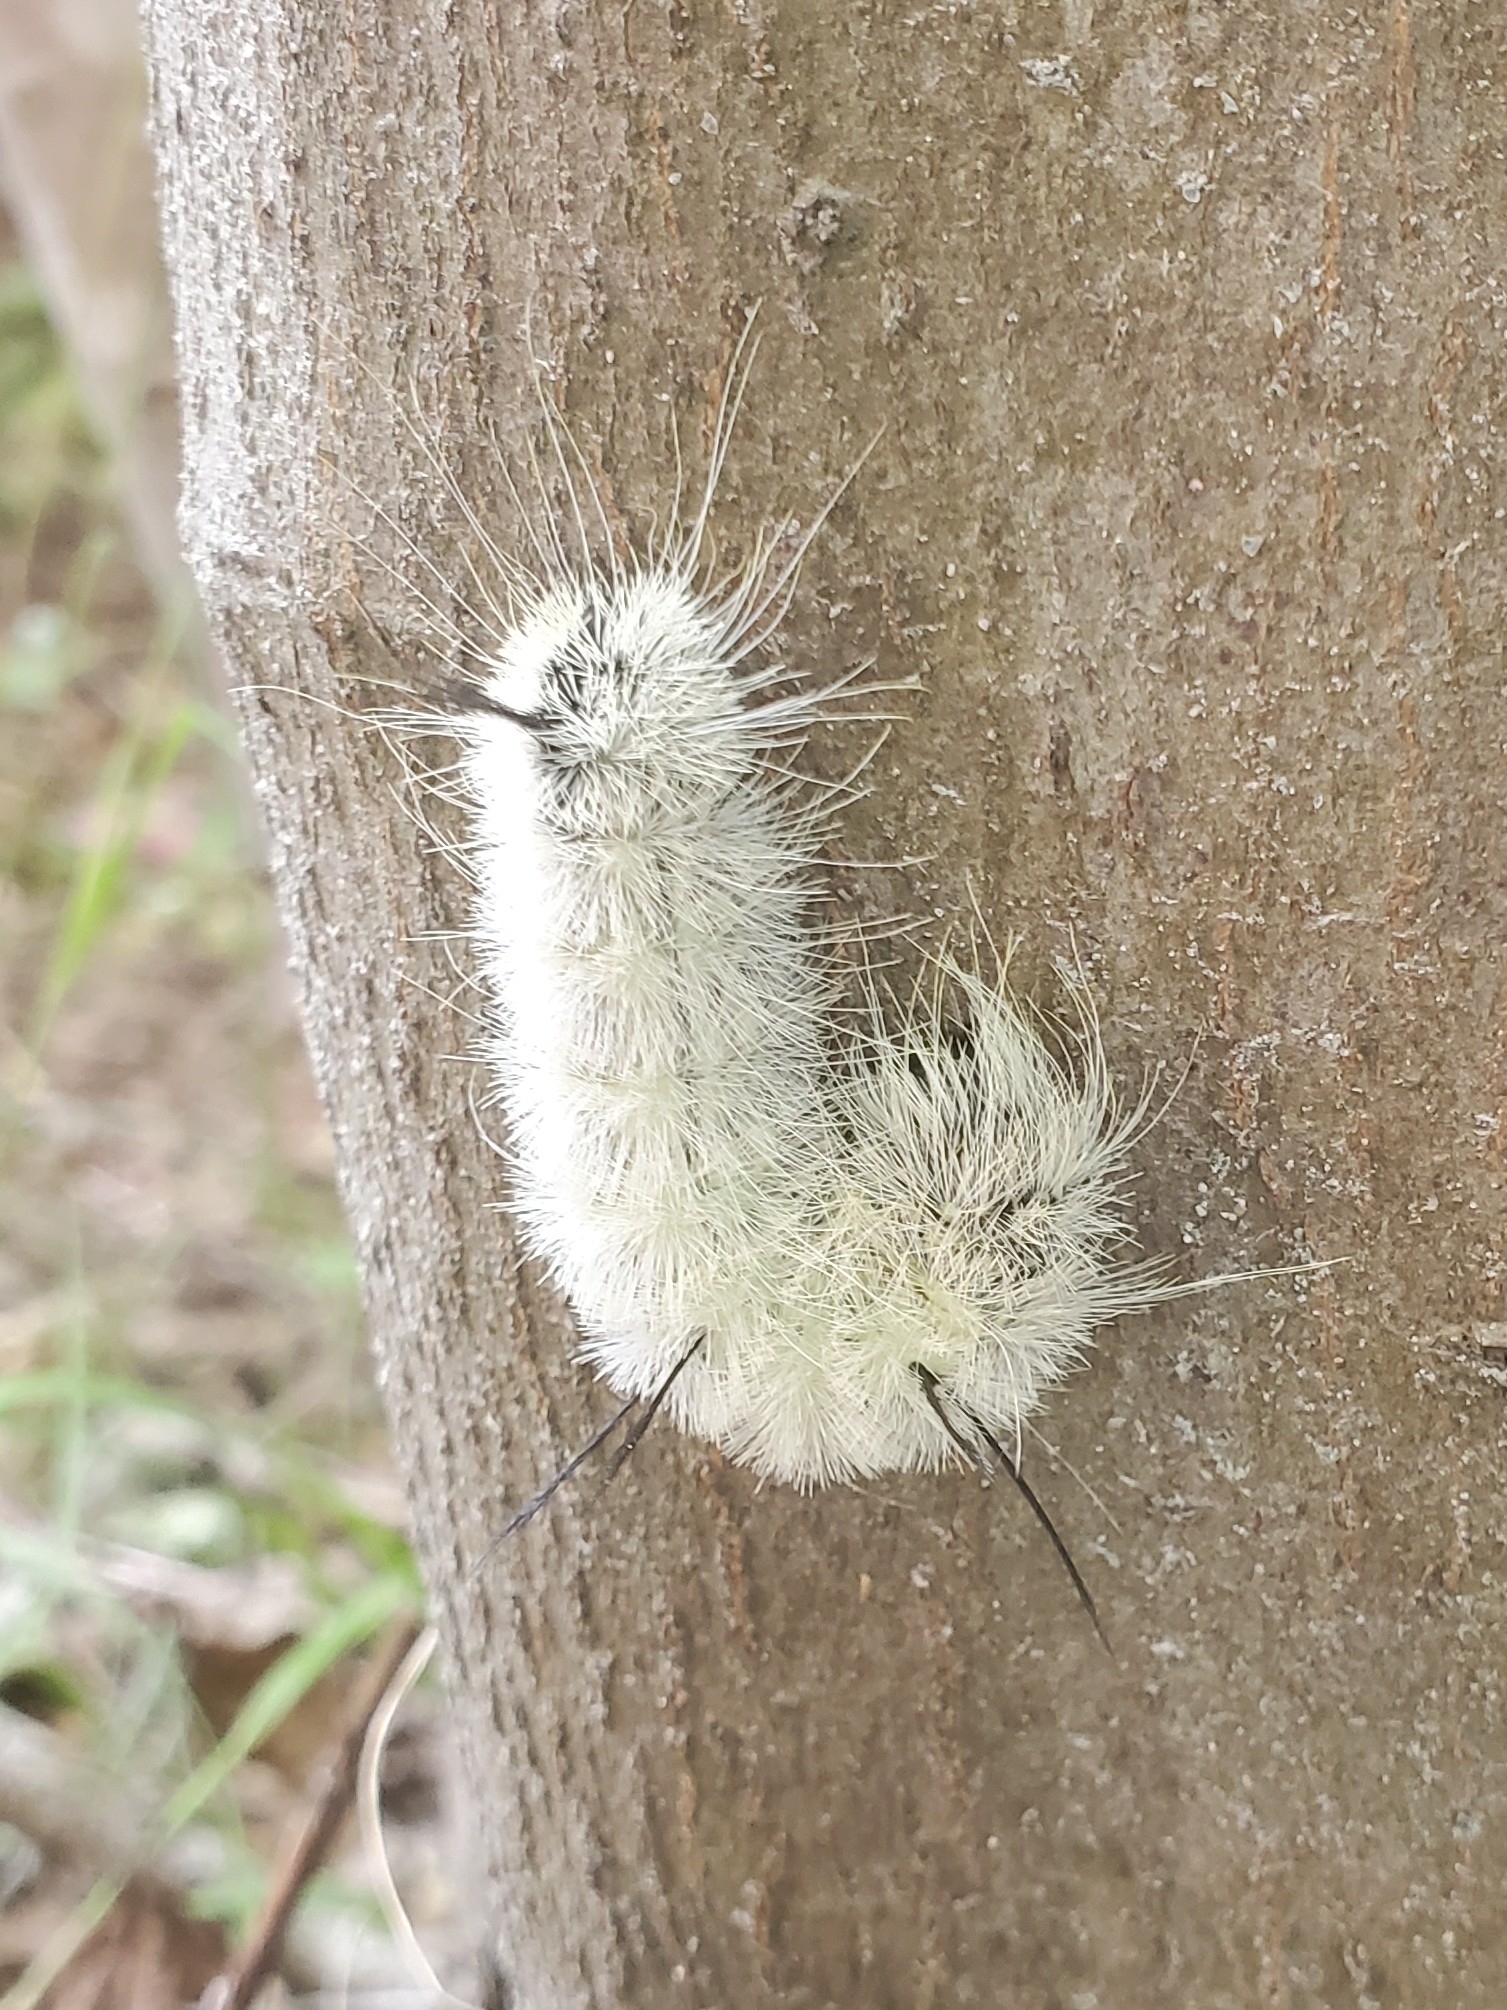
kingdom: Animalia
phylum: Arthropoda
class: Insecta
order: Lepidoptera
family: Noctuidae
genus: Acronicta
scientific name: Acronicta americana
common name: American dagger
